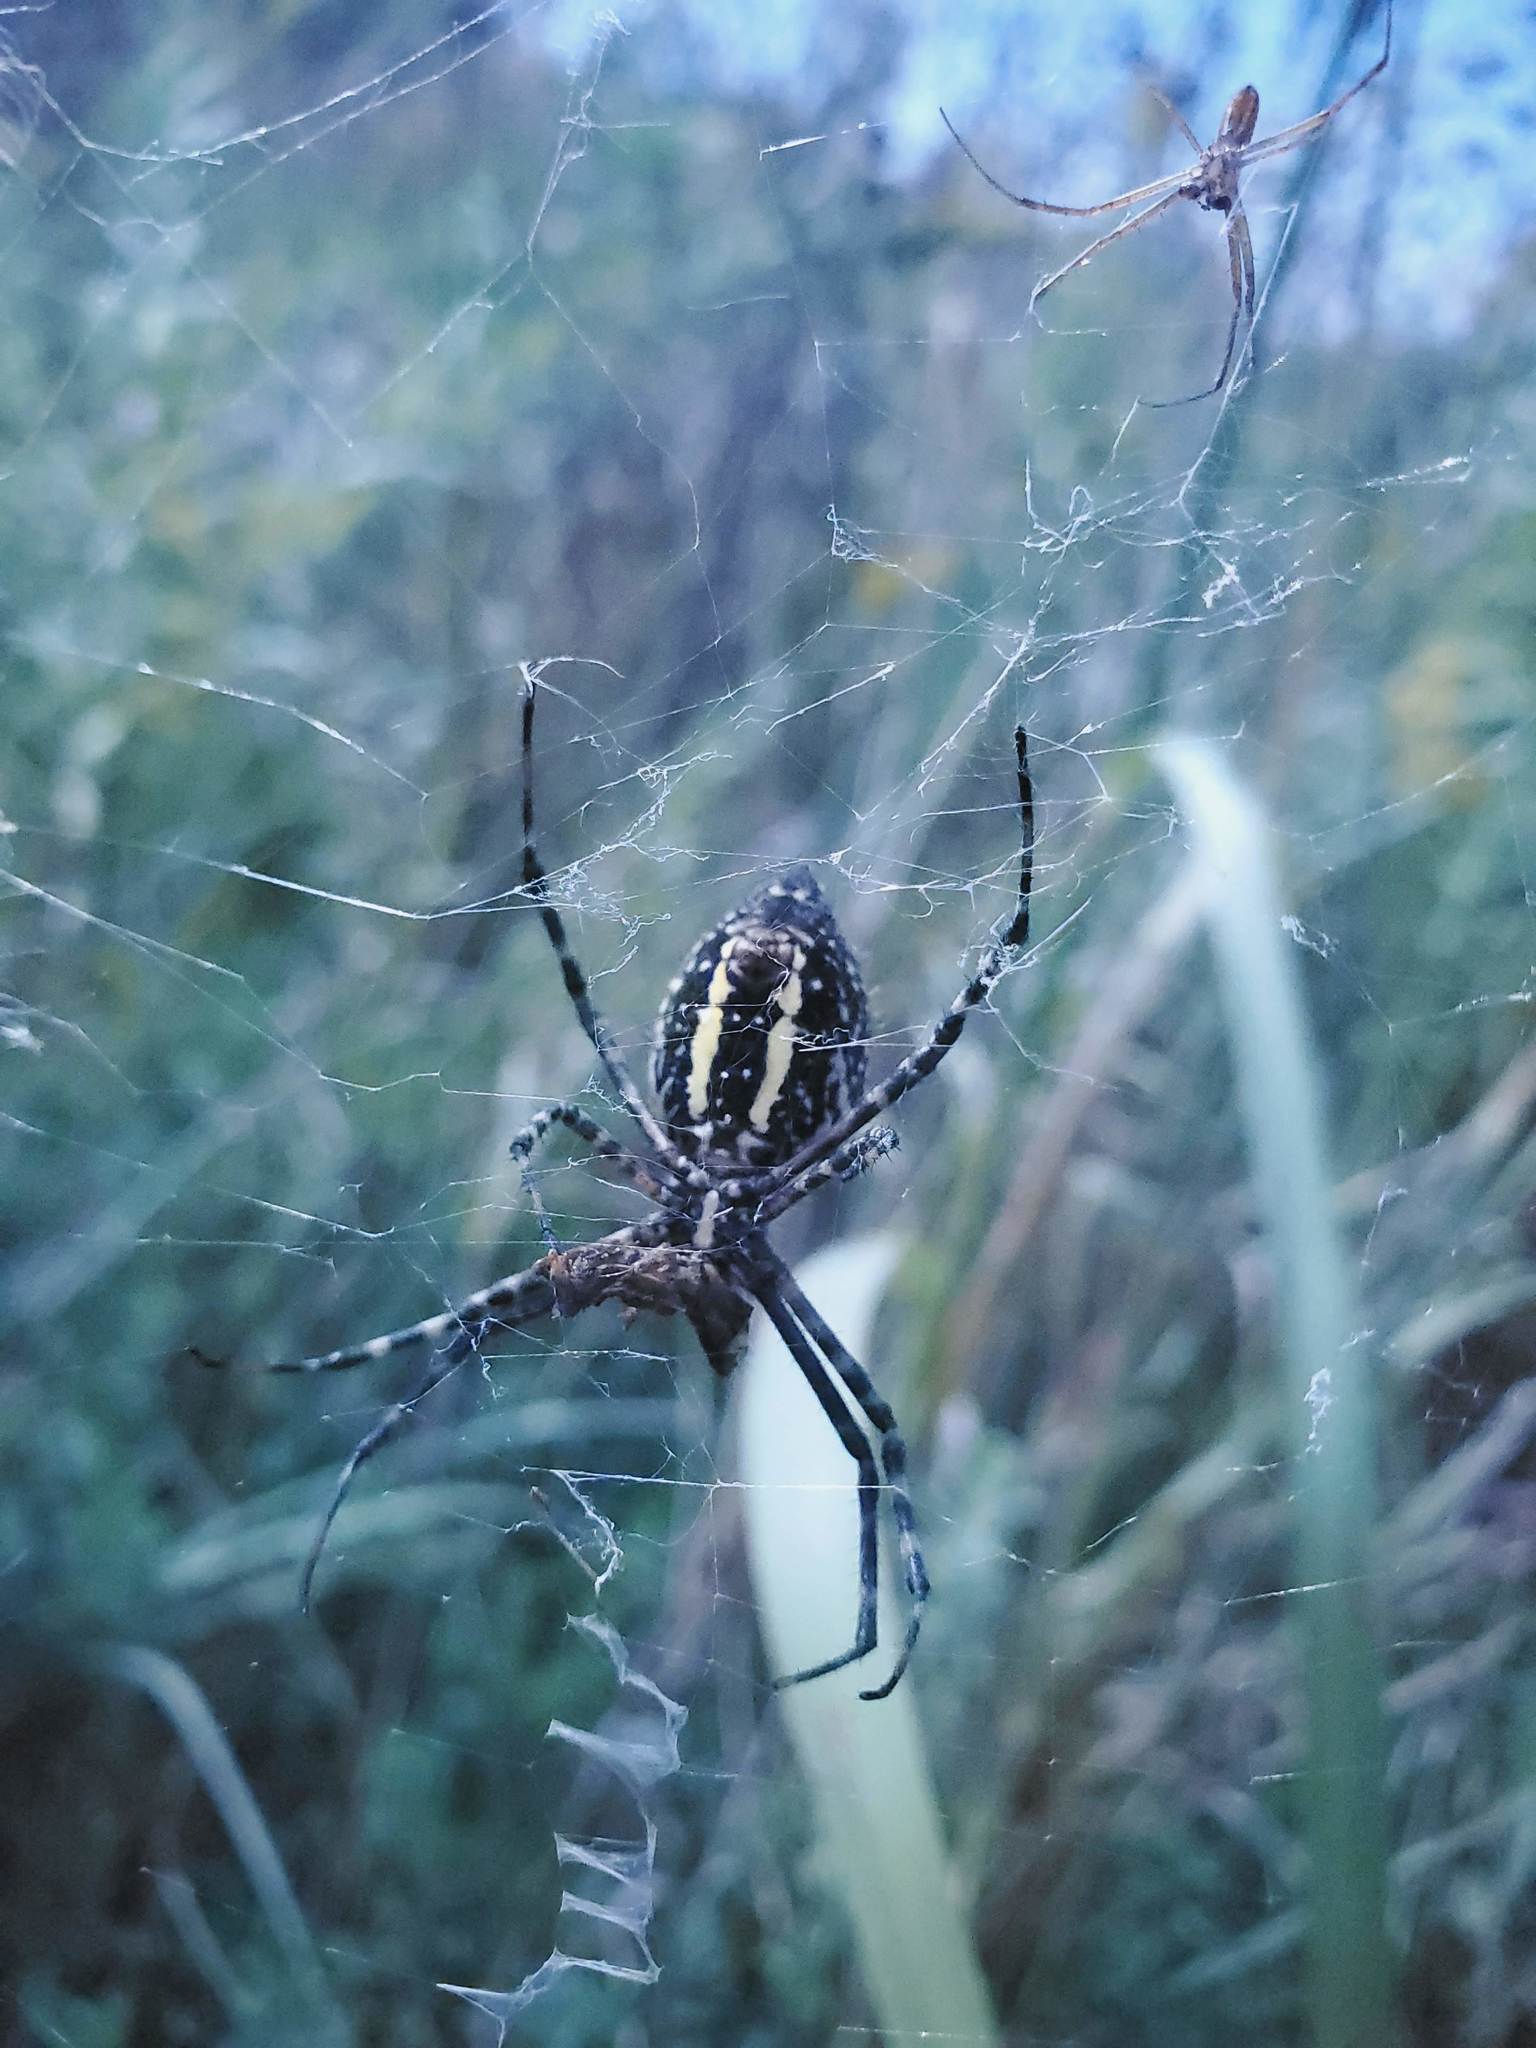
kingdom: Animalia
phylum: Arthropoda
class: Arachnida
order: Araneae
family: Araneidae
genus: Argiope
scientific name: Argiope trifasciata
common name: Banded garden spider
